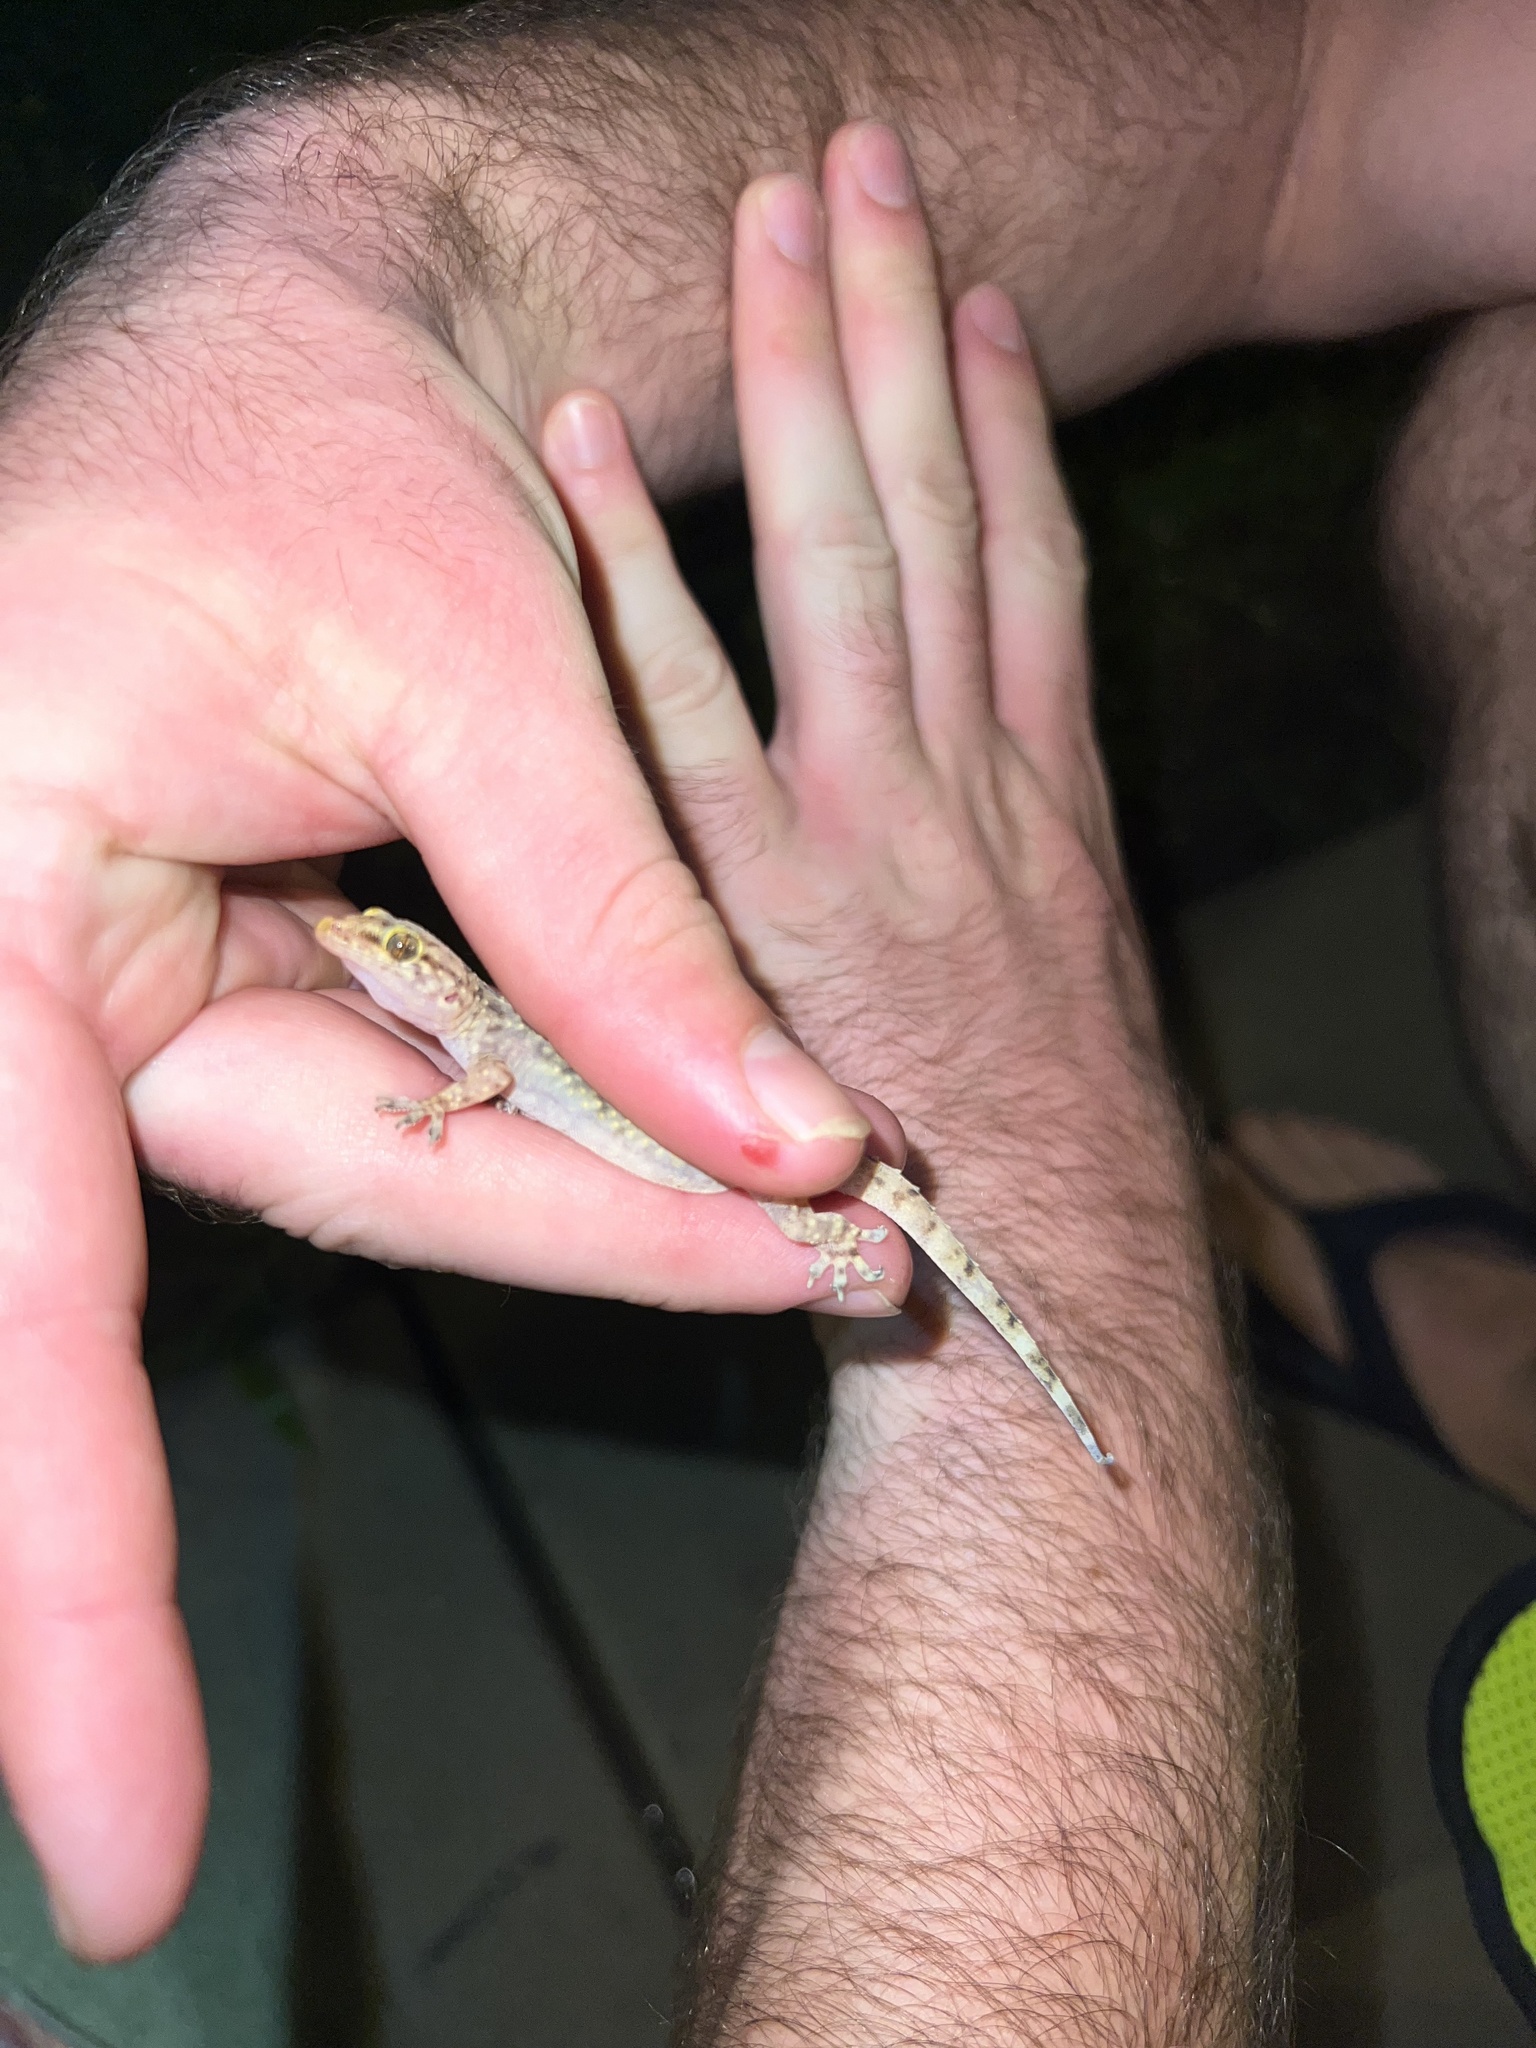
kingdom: Animalia
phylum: Chordata
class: Squamata
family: Gekkonidae
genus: Hemidactylus
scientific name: Hemidactylus turcicus
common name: Turkish gecko
